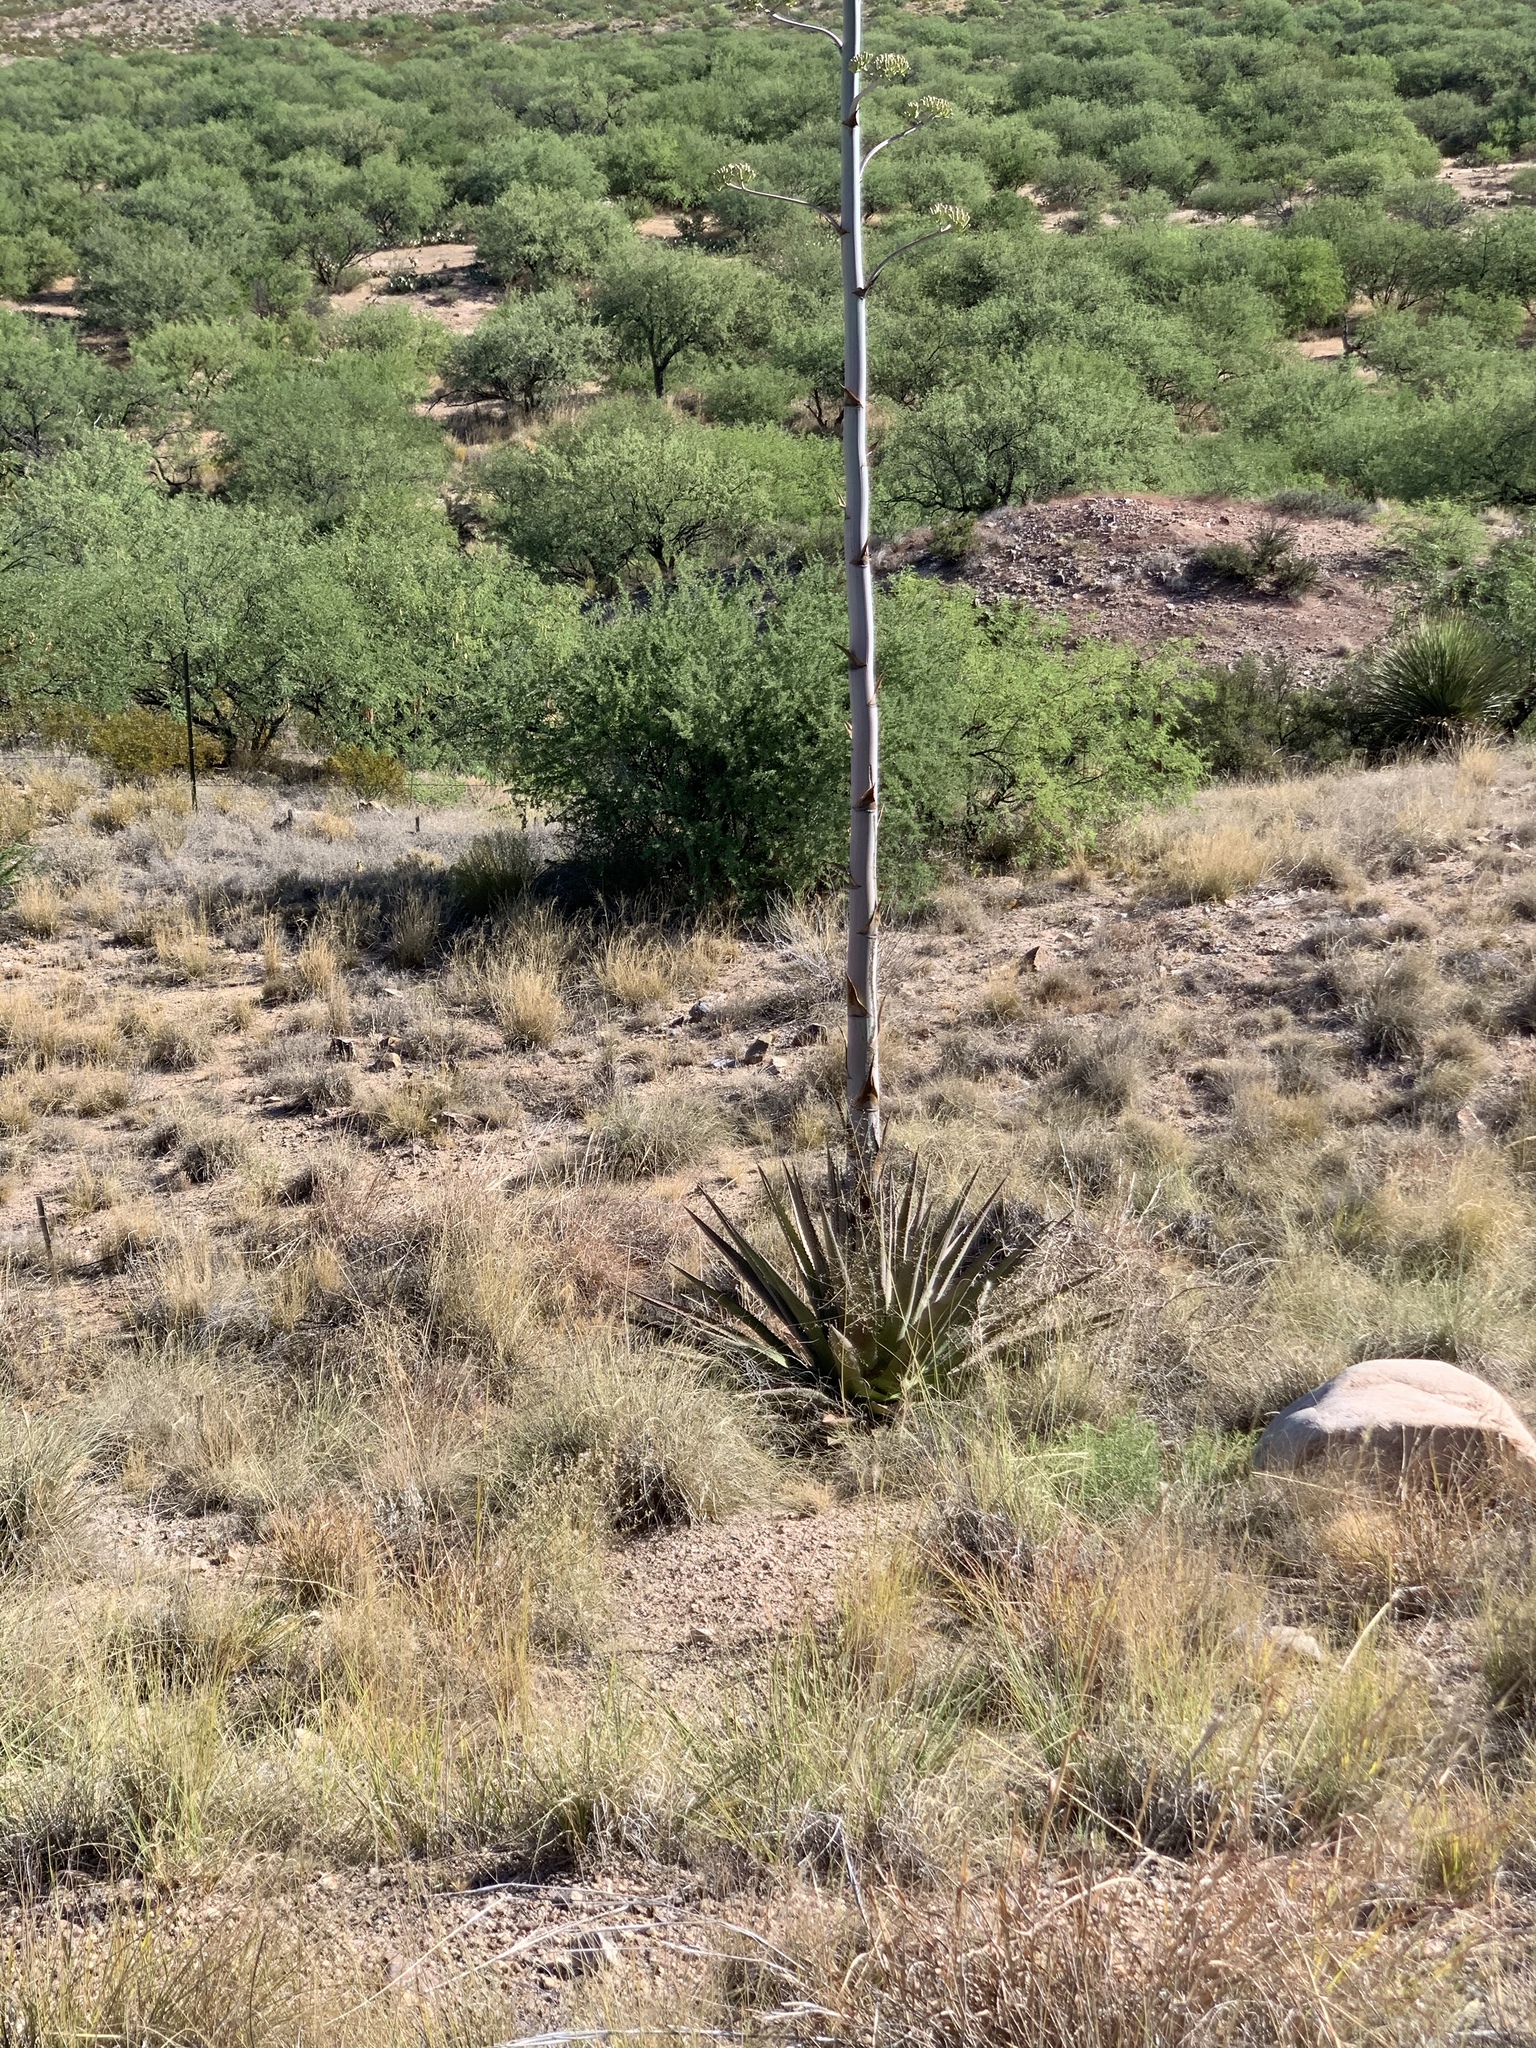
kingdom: Plantae
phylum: Tracheophyta
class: Liliopsida
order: Asparagales
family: Asparagaceae
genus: Agave
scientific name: Agave palmeri
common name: Palmer agave
